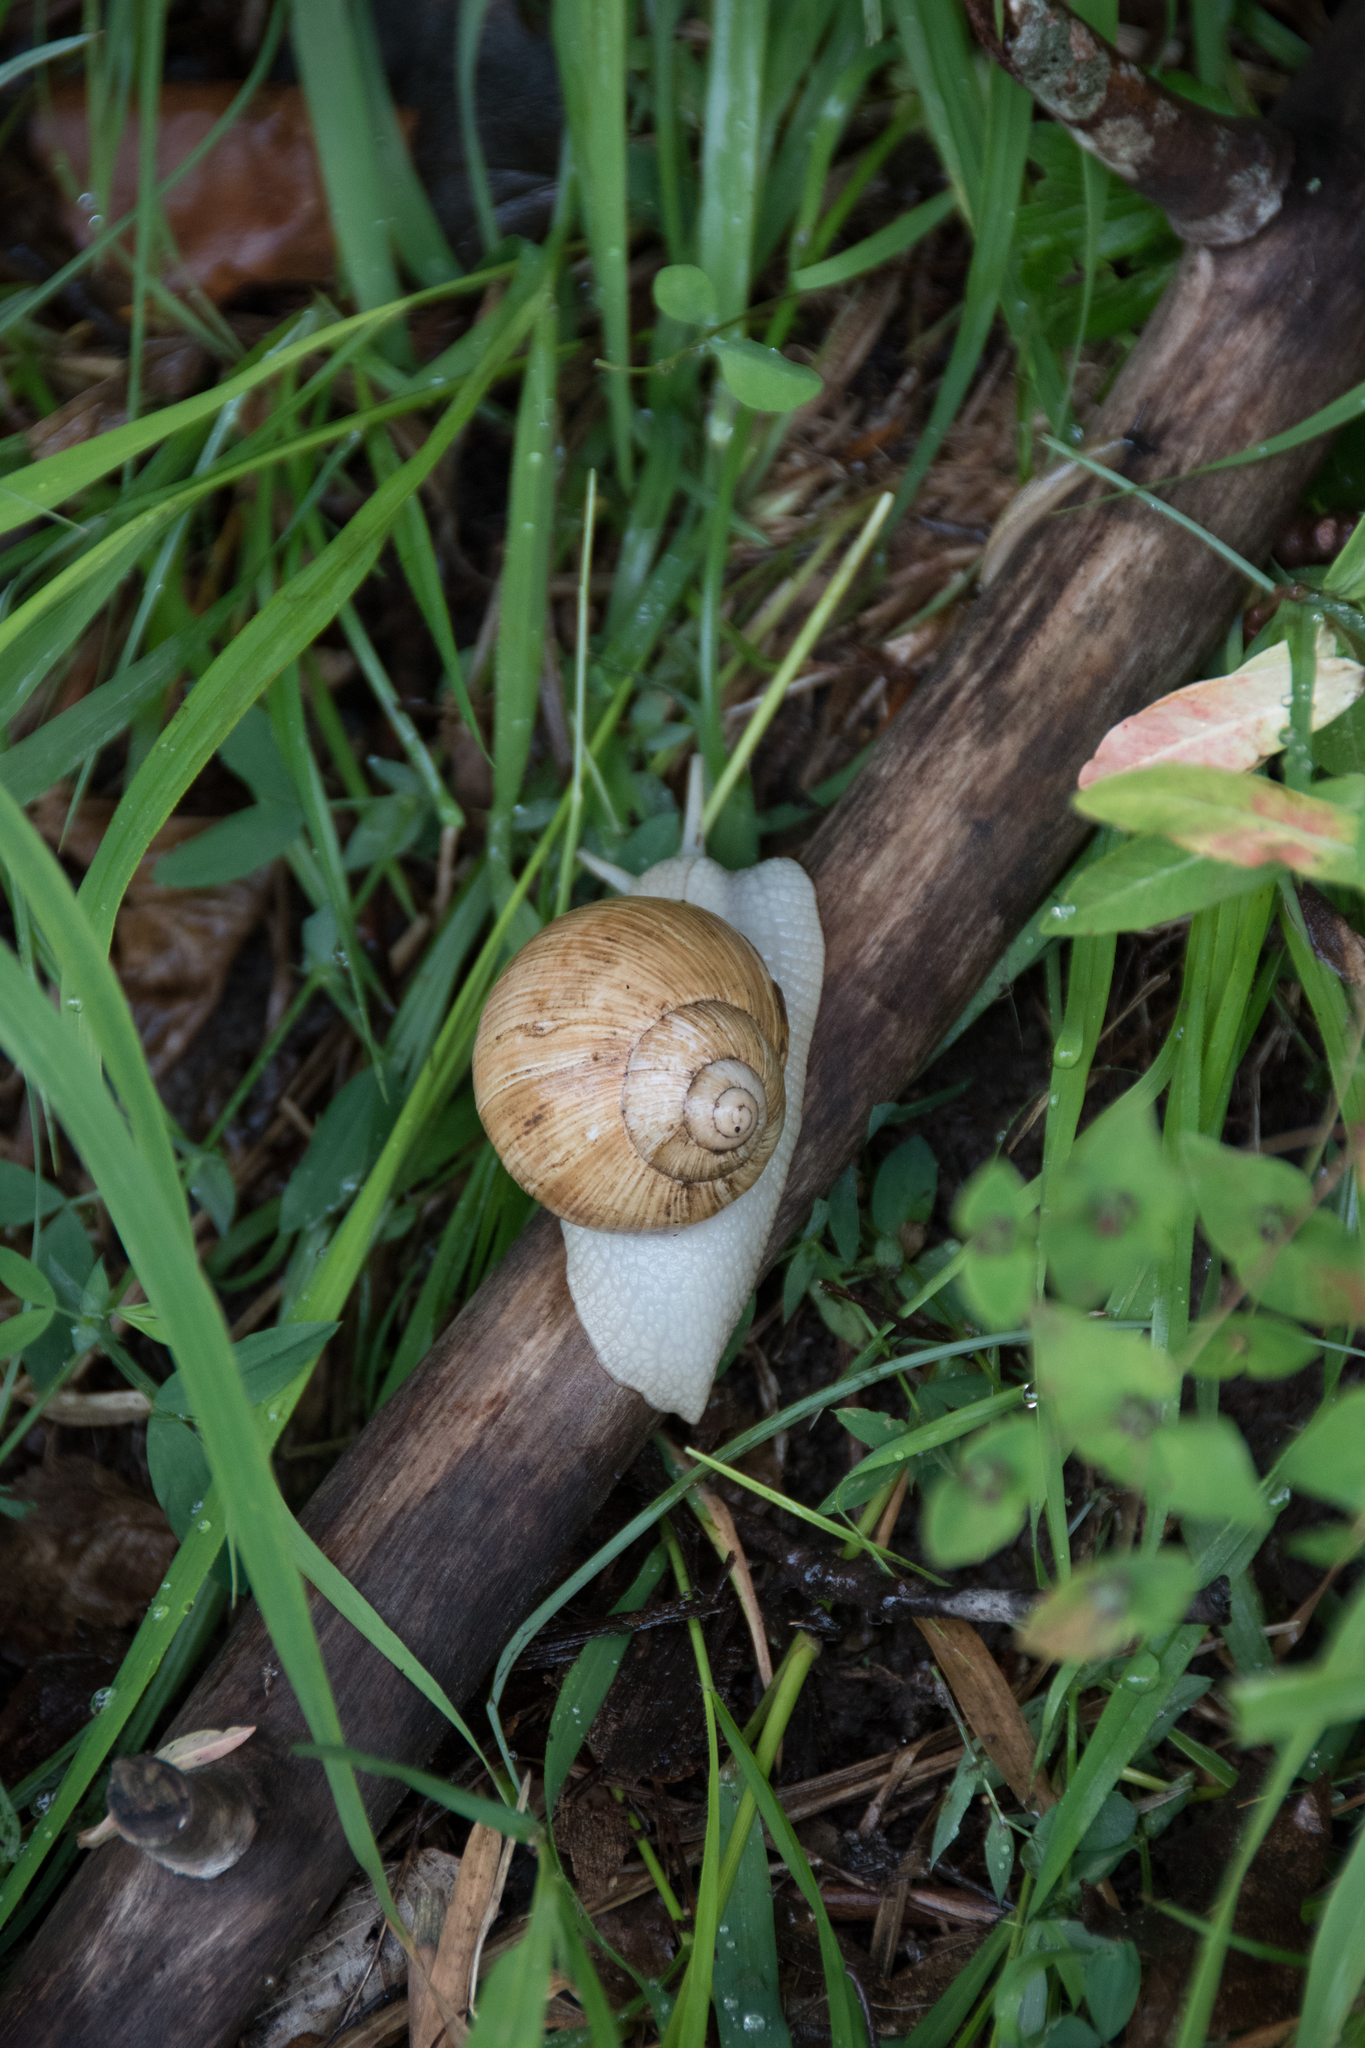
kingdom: Animalia
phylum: Mollusca
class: Gastropoda
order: Stylommatophora
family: Helicidae
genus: Helix
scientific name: Helix pomatia
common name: Roman snail
